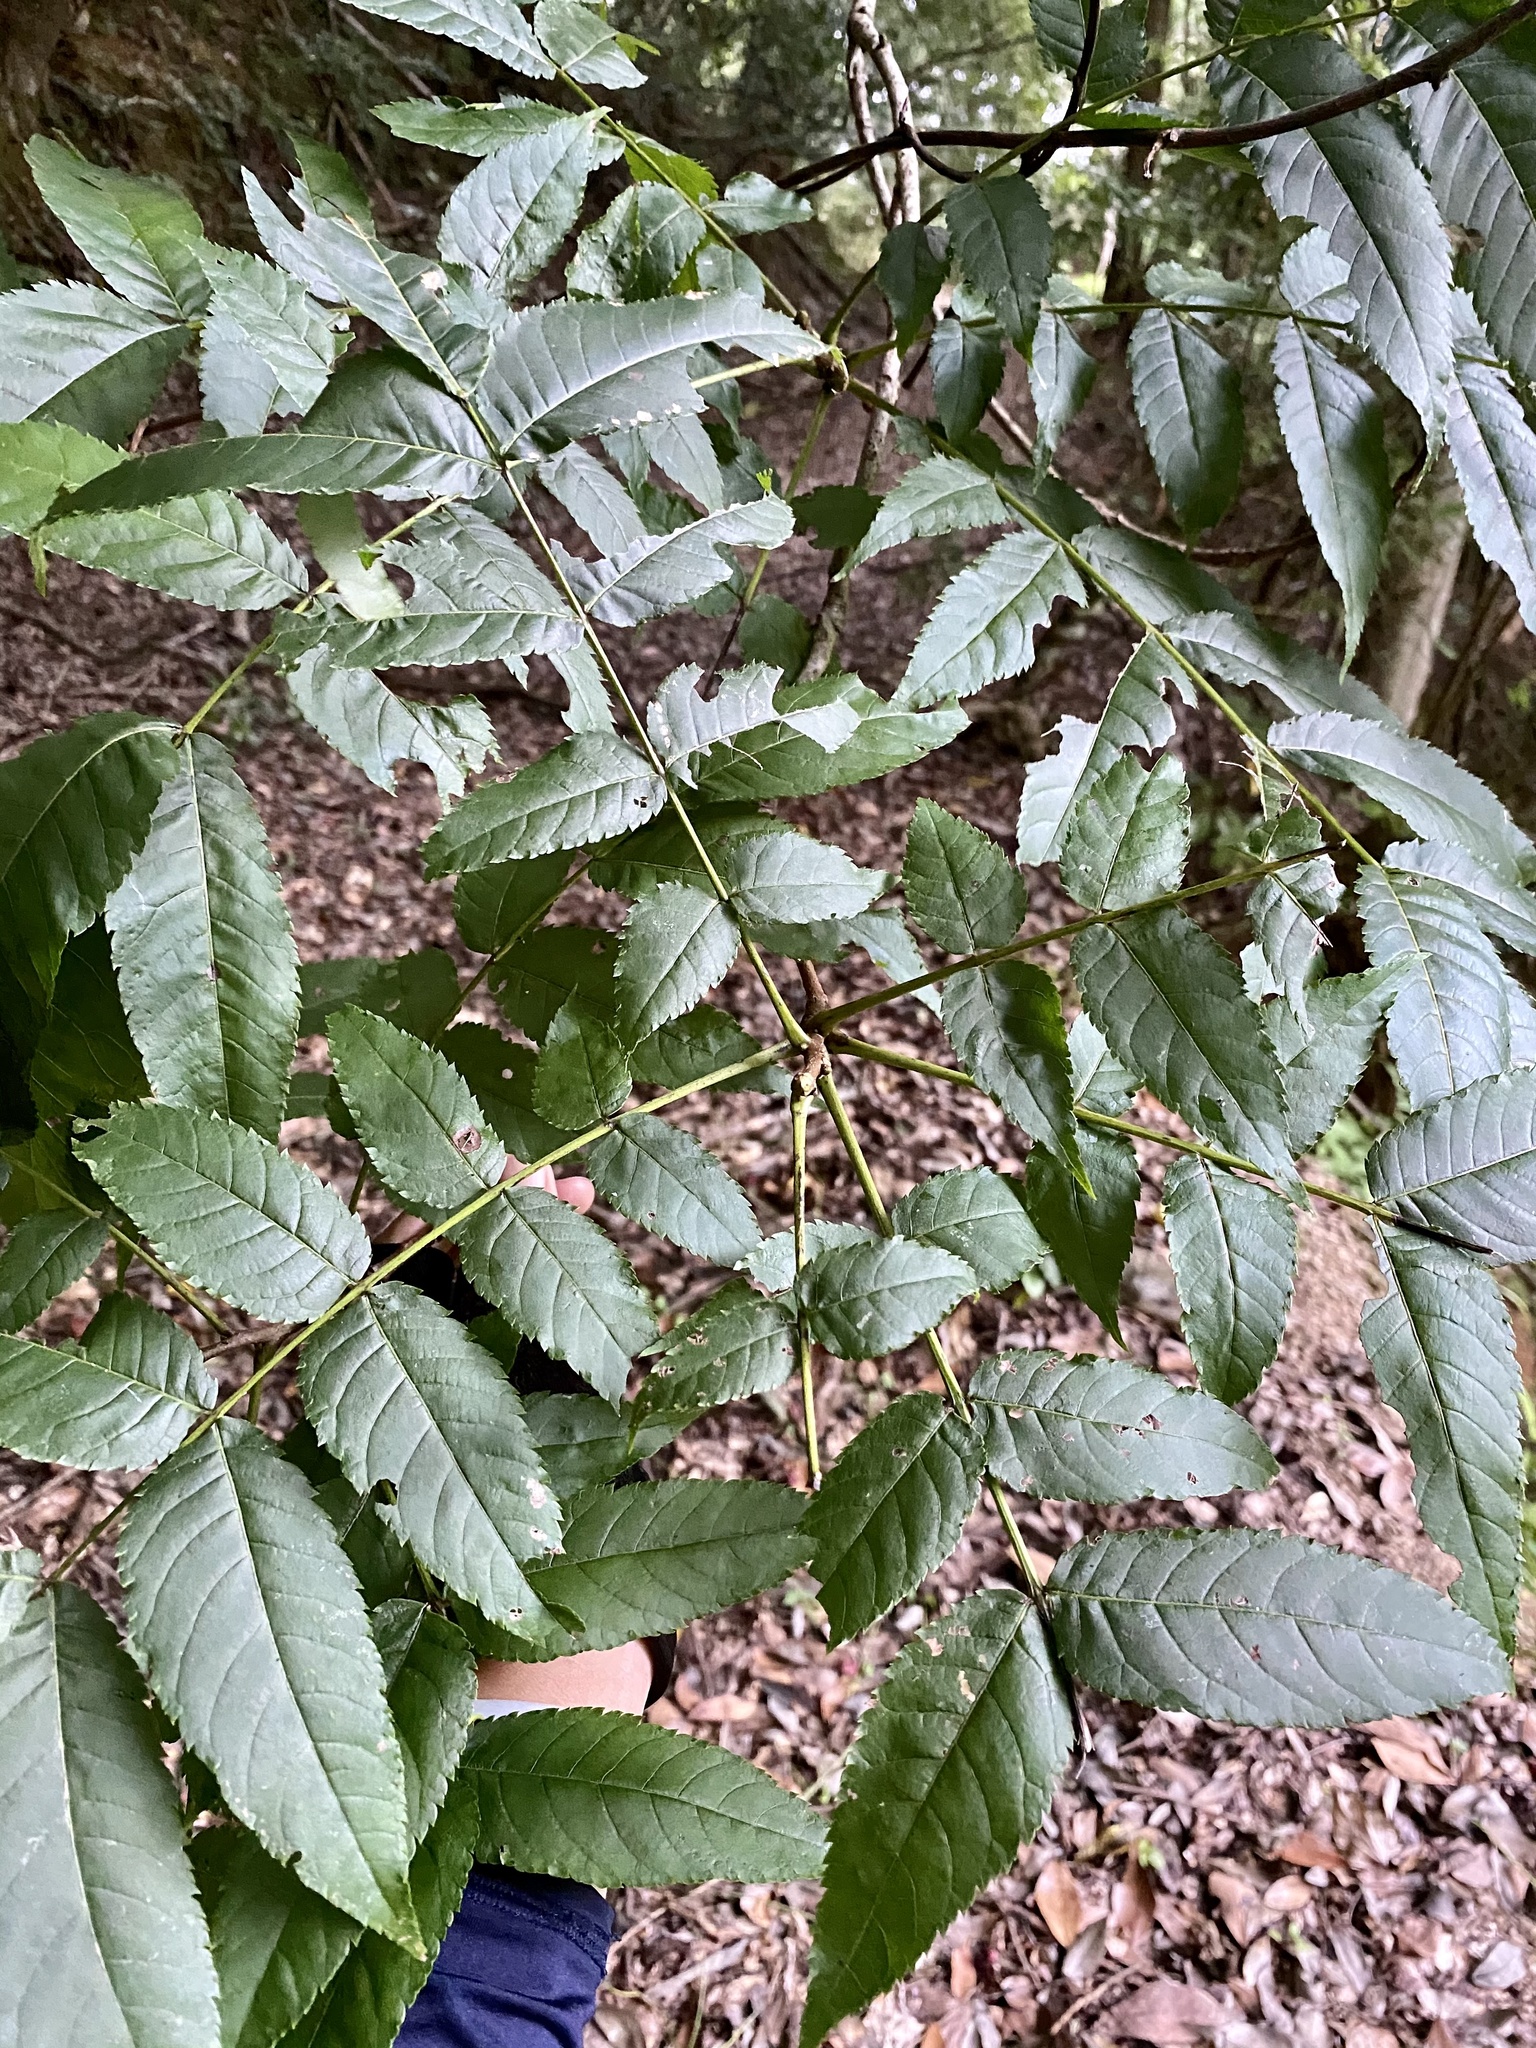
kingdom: Plantae
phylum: Tracheophyta
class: Magnoliopsida
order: Fagales
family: Juglandaceae
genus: Platycarya
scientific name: Platycarya strobilacea
